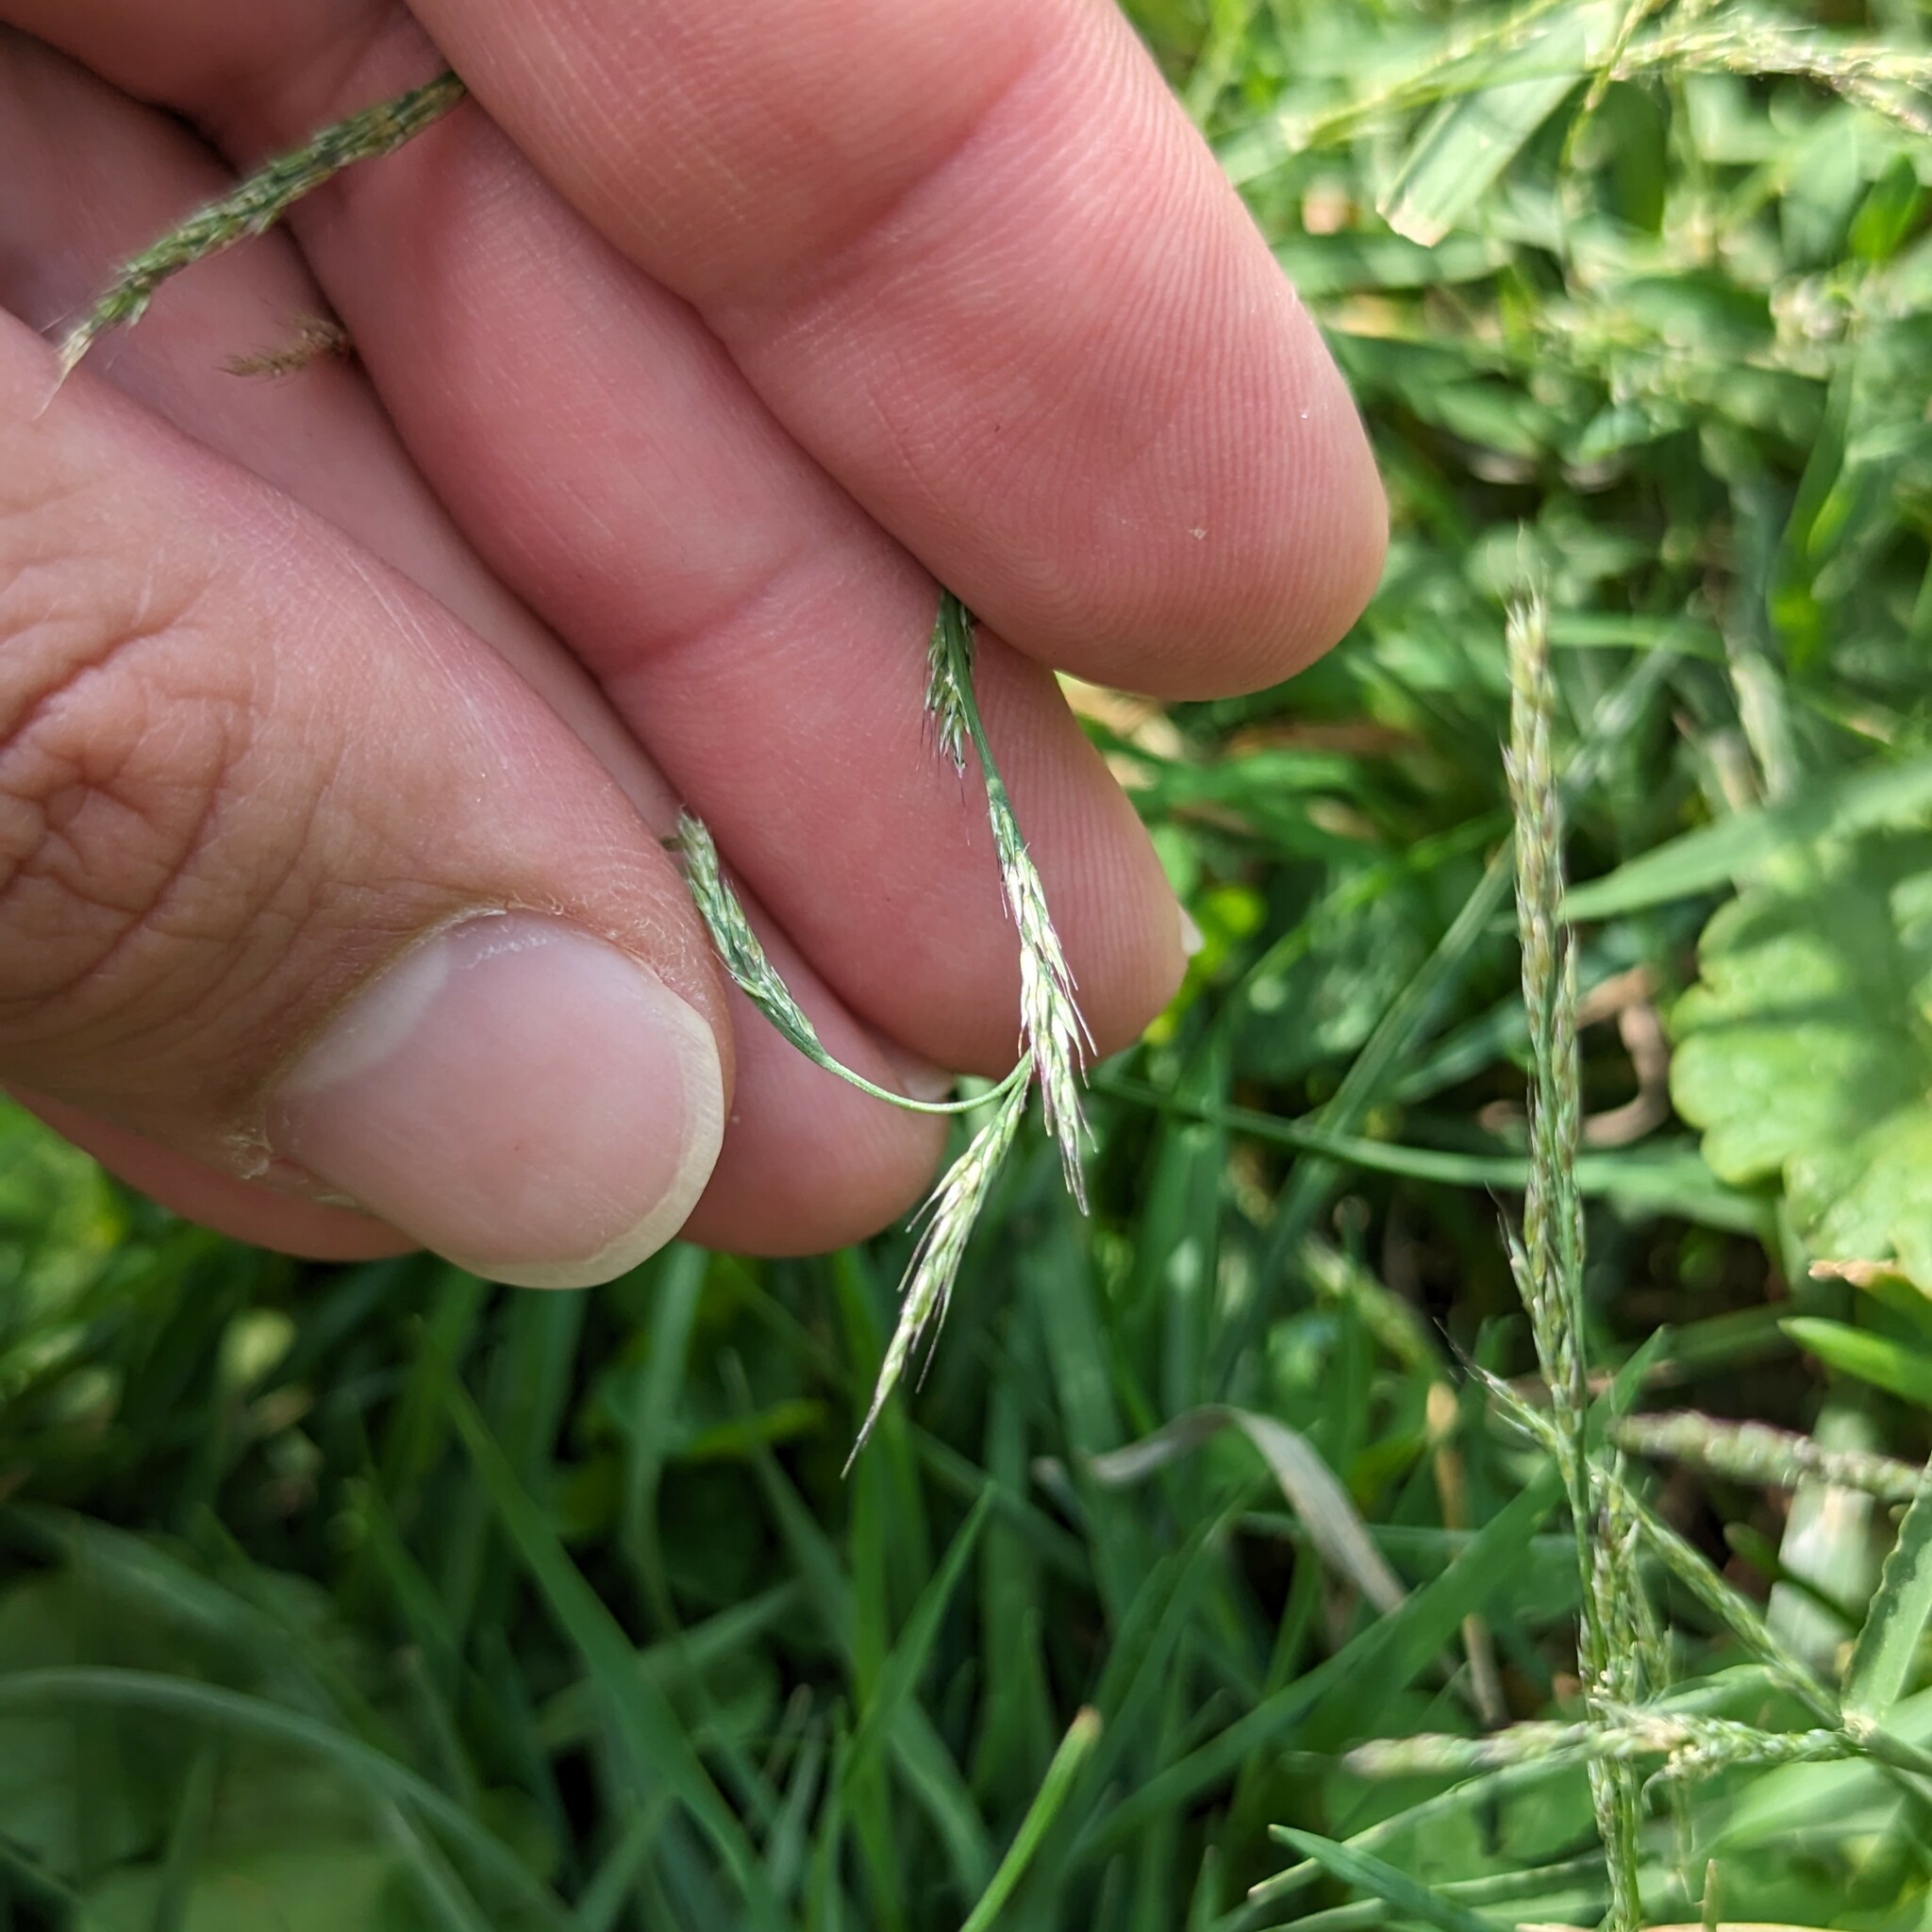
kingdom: Plantae
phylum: Tracheophyta
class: Liliopsida
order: Poales
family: Poaceae
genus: Muhlenbergia
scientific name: Muhlenbergia schreberi
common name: Nimblewill
